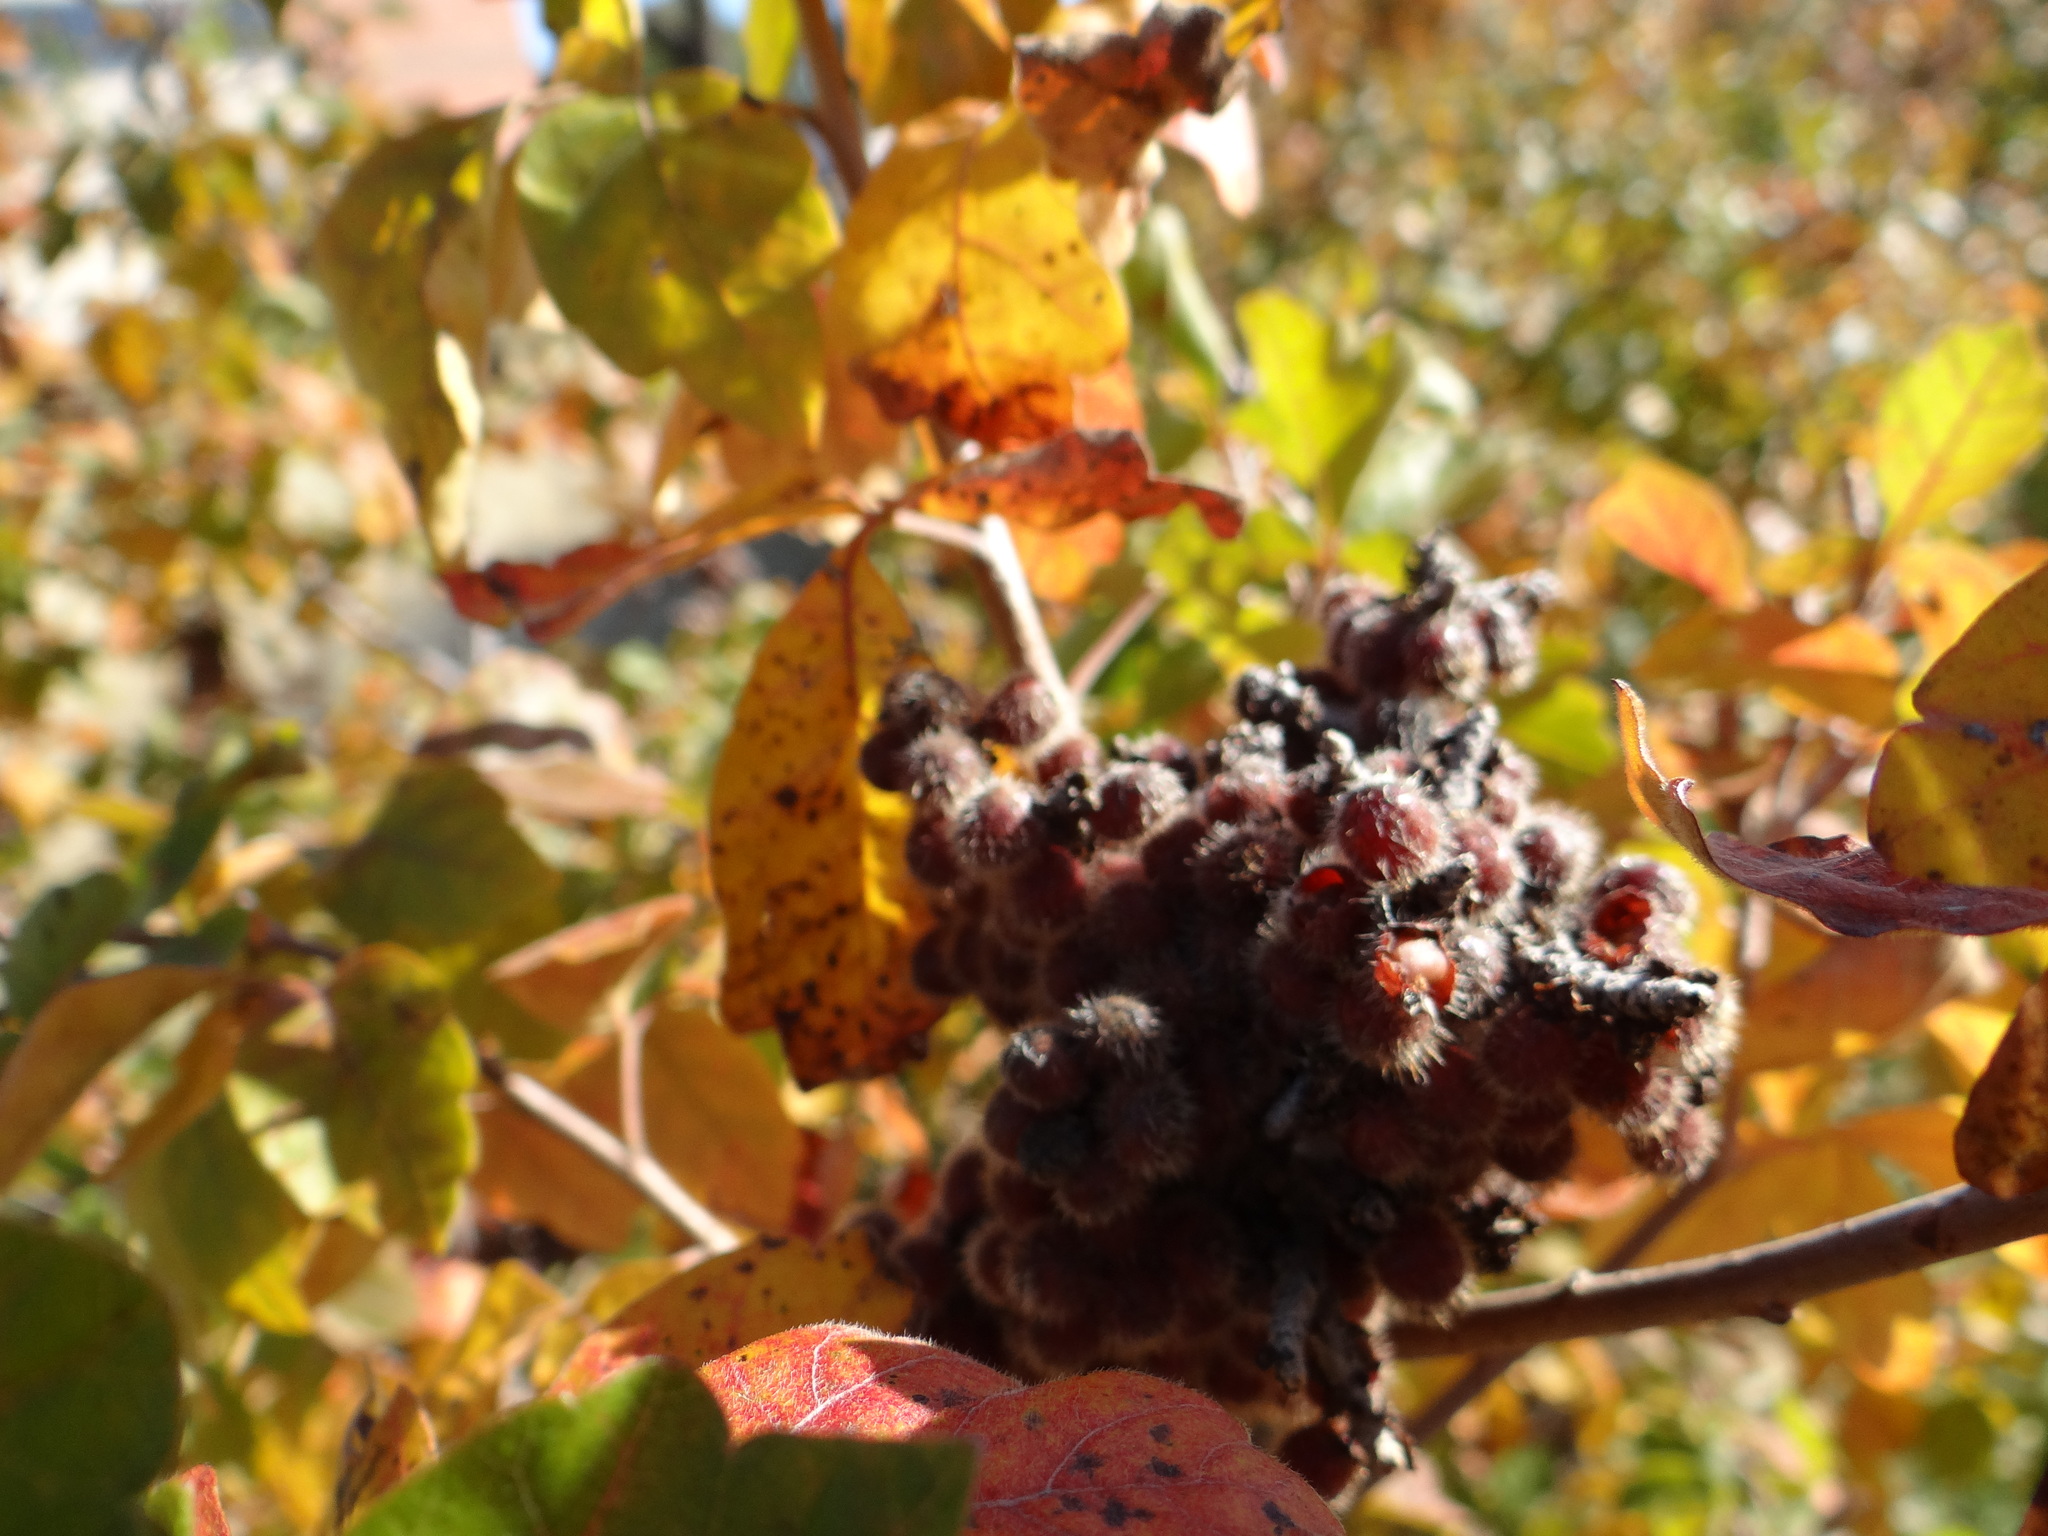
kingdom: Plantae
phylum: Tracheophyta
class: Magnoliopsida
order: Sapindales
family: Anacardiaceae
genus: Rhus
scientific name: Rhus aromatica
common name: Aromatic sumac
